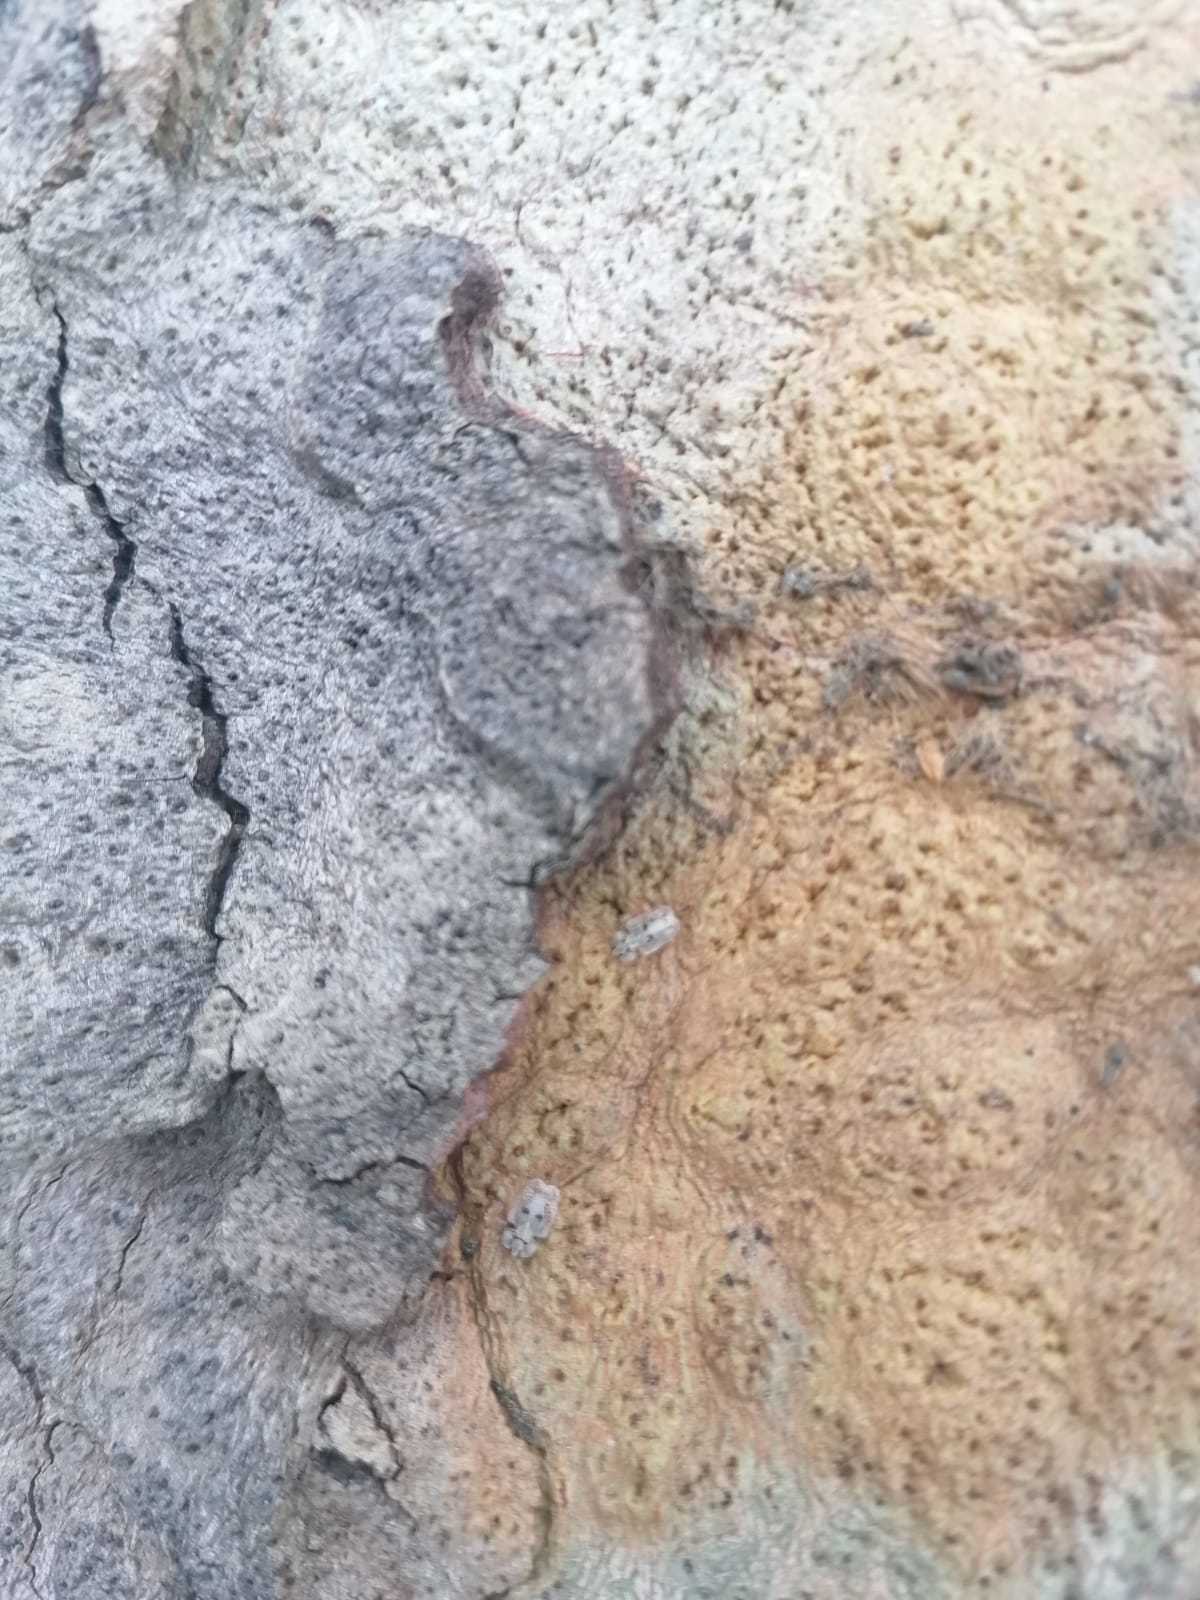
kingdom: Animalia
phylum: Arthropoda
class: Insecta
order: Hemiptera
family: Tingidae
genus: Corythucha
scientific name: Corythucha ciliata
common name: Sycamore lace bug
